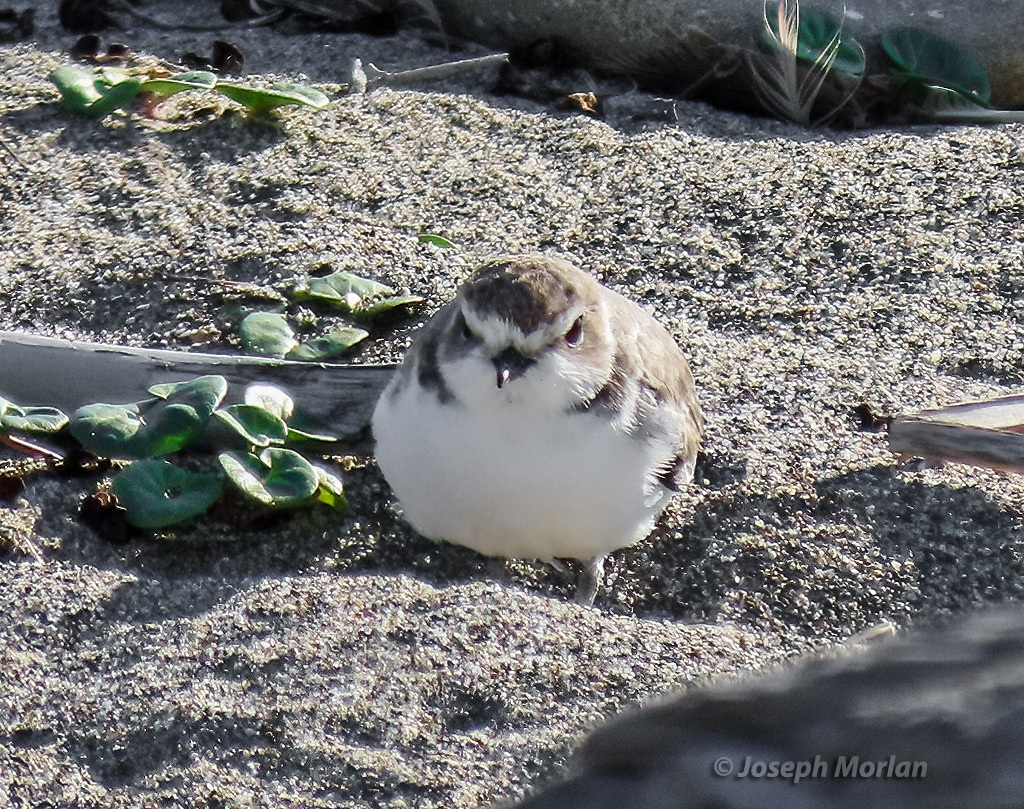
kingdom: Animalia
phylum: Chordata
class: Aves
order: Charadriiformes
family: Charadriidae
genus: Anarhynchus
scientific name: Anarhynchus
